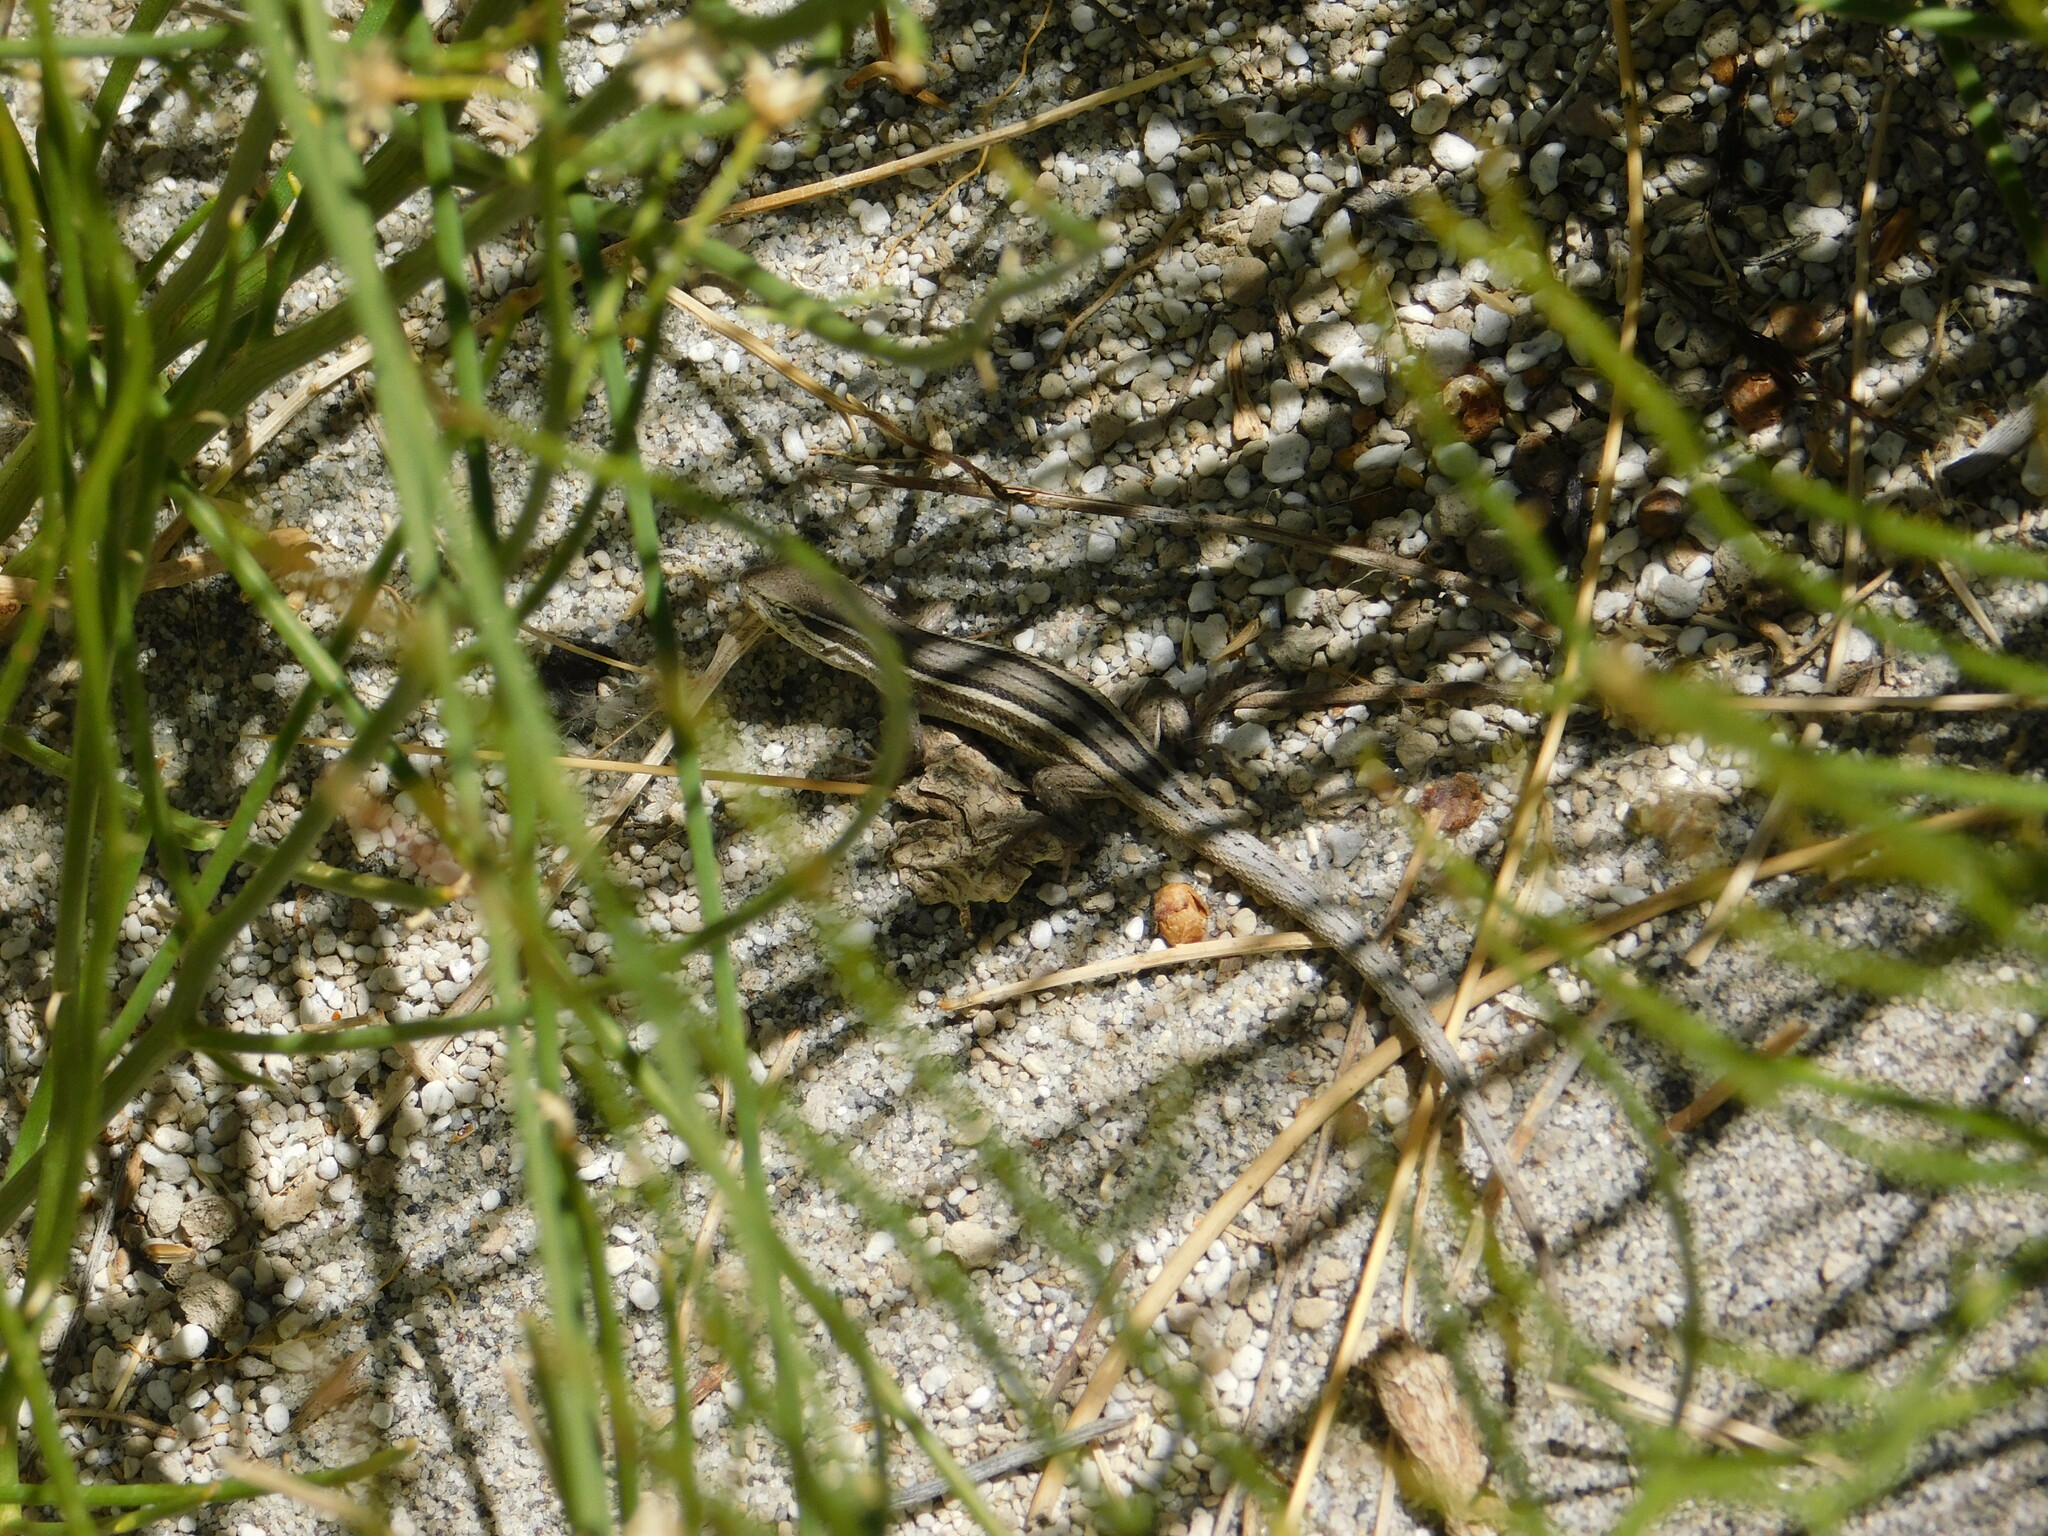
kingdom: Animalia
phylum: Chordata
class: Squamata
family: Liolaemidae
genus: Liolaemus
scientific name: Liolaemus gracilis
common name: Graceful tree iguana
